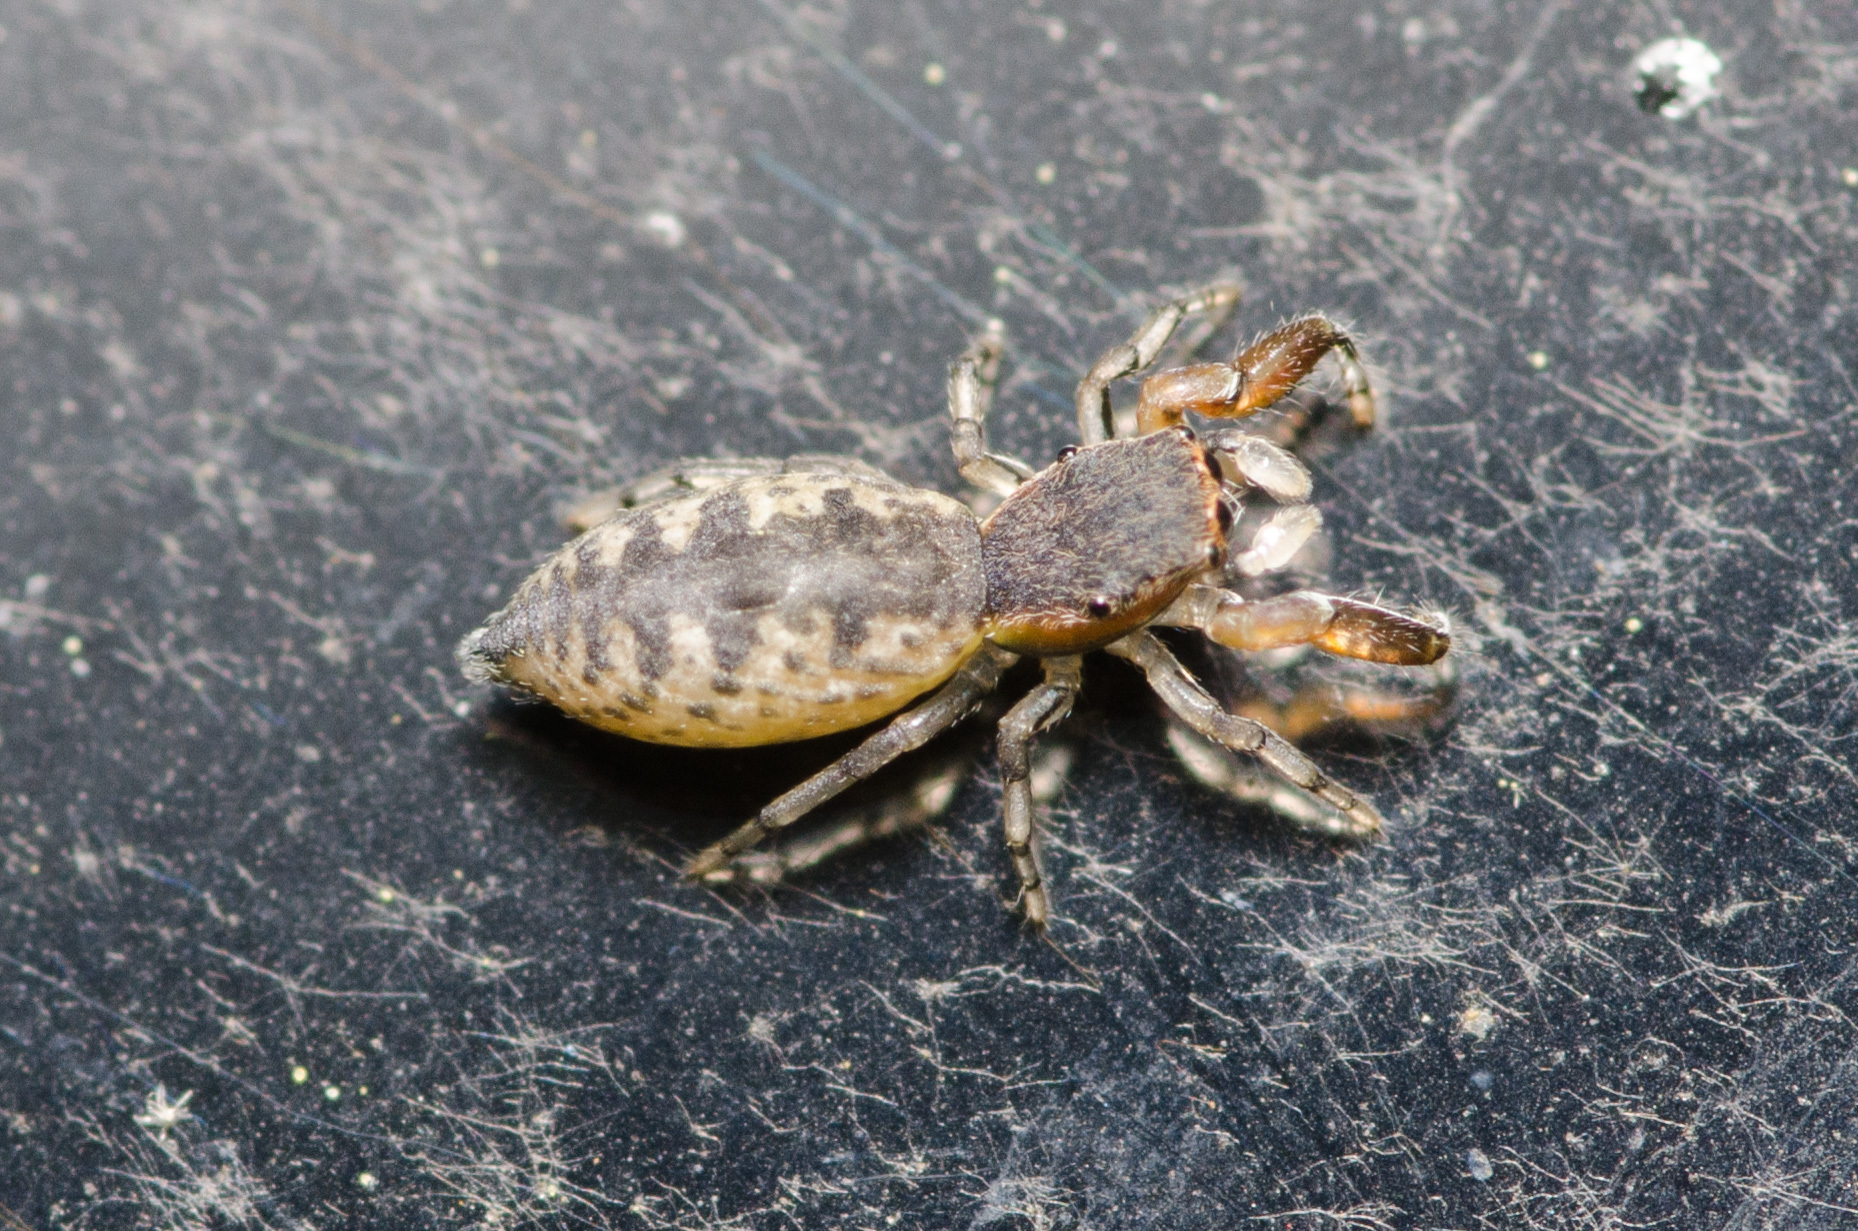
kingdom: Animalia
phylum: Arthropoda
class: Arachnida
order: Araneae
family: Salticidae
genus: Cheliferoides
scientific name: Cheliferoides segmentatus
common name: Jumping spiders
